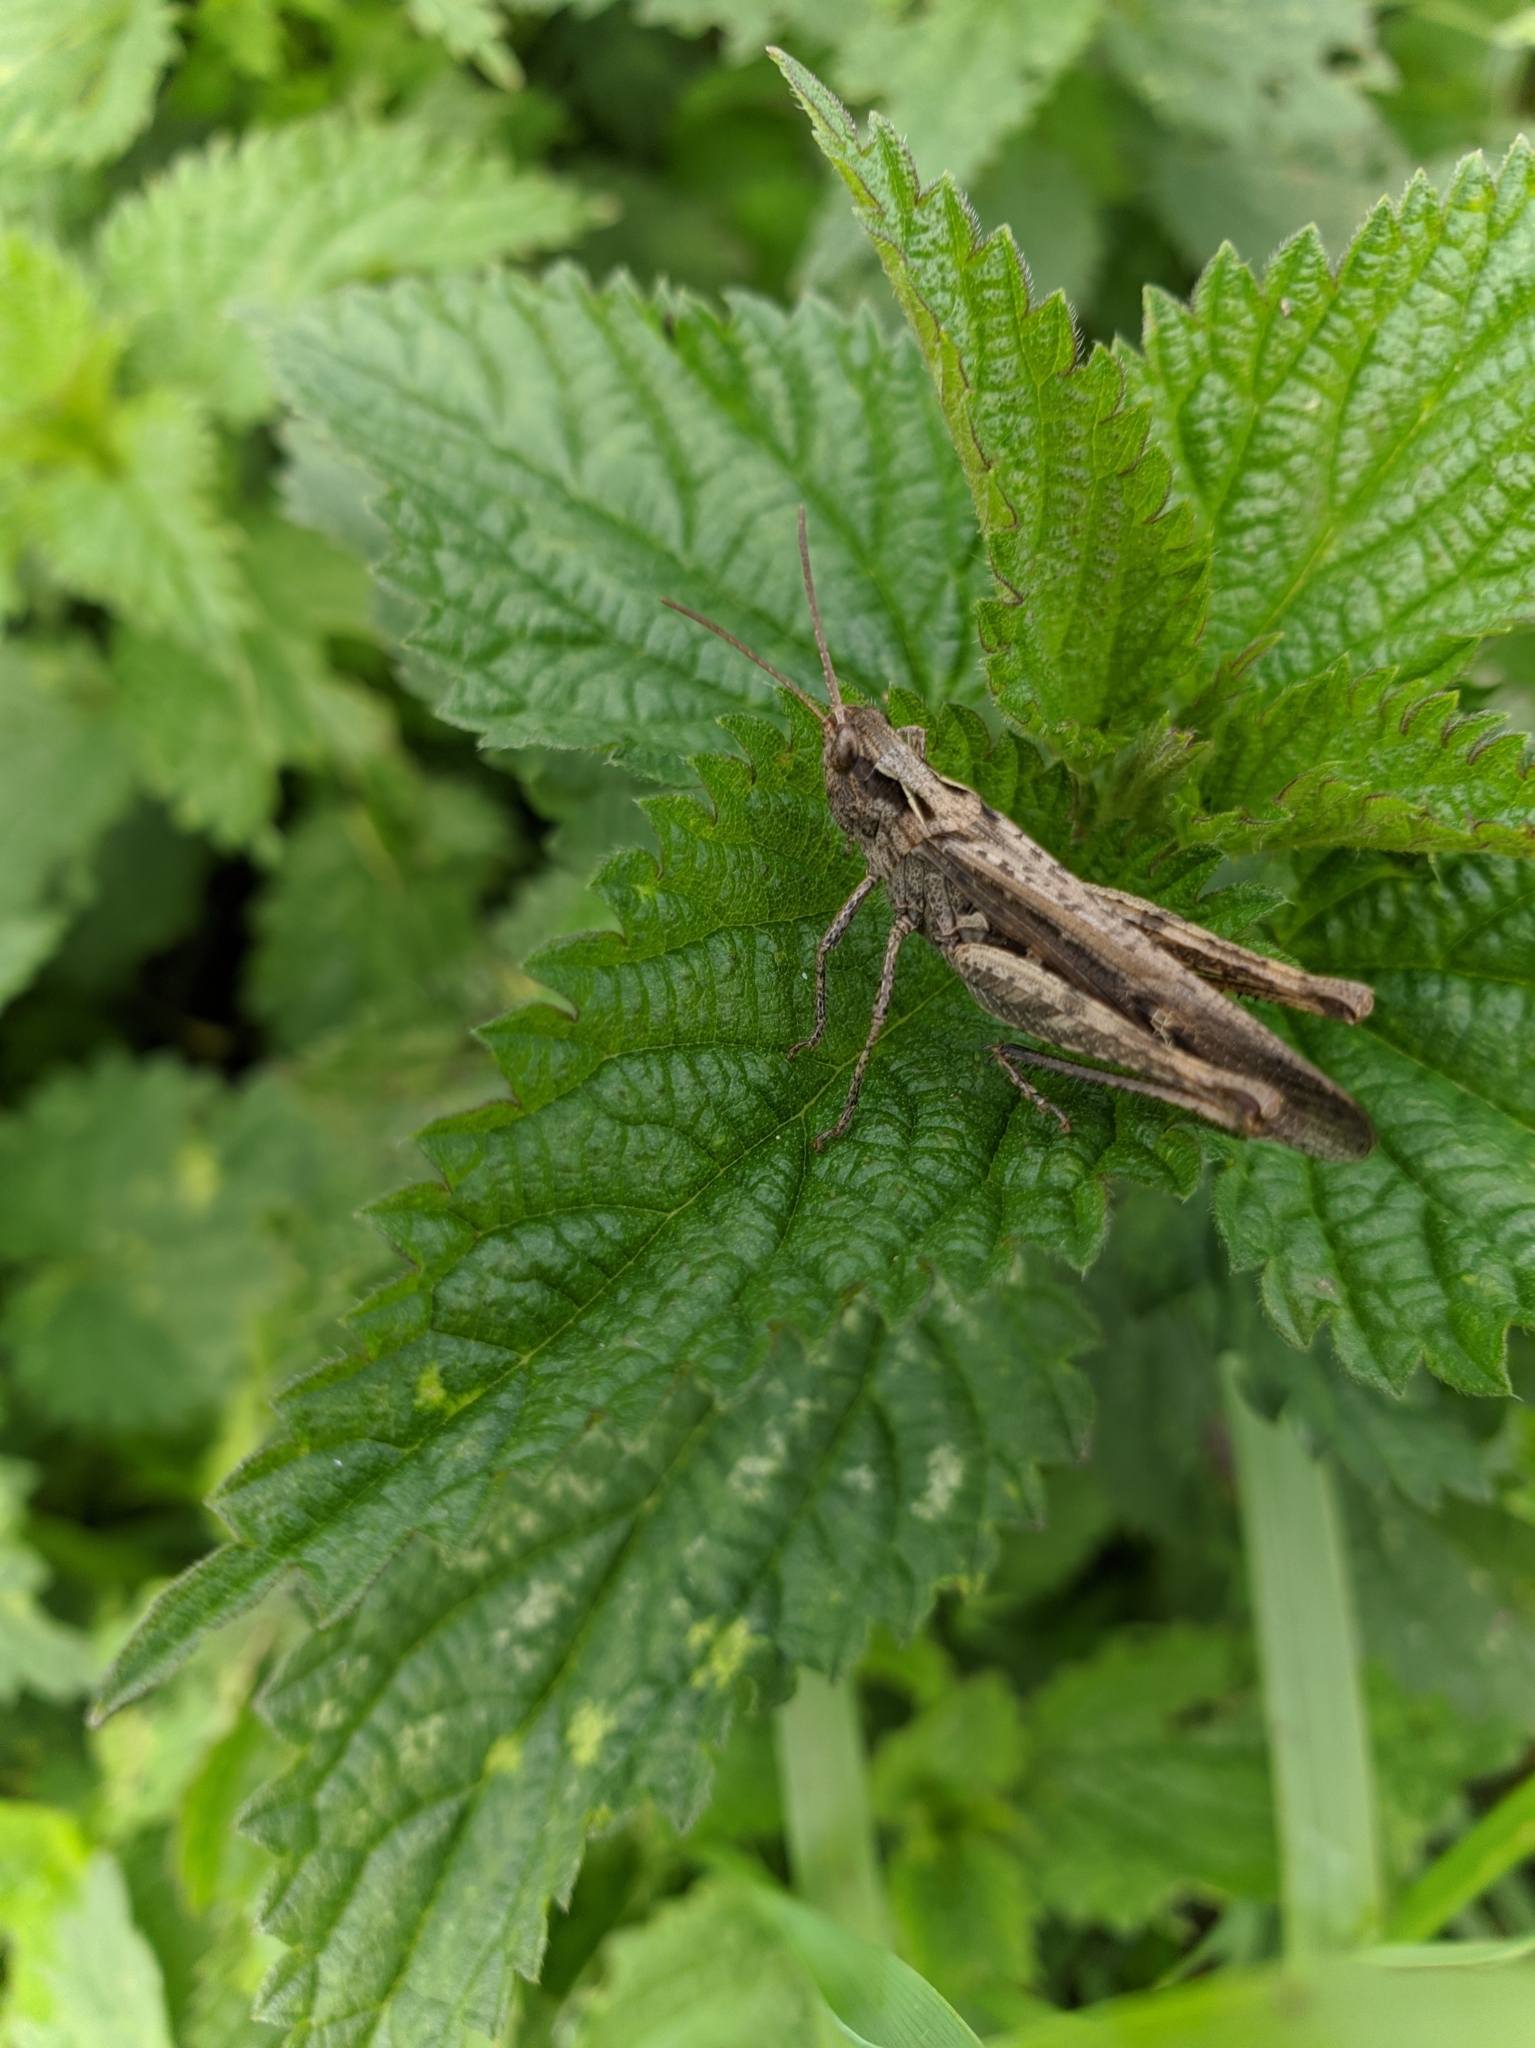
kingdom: Animalia
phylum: Arthropoda
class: Insecta
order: Orthoptera
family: Acrididae
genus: Chorthippus
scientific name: Chorthippus brunneus
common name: Field grasshopper
